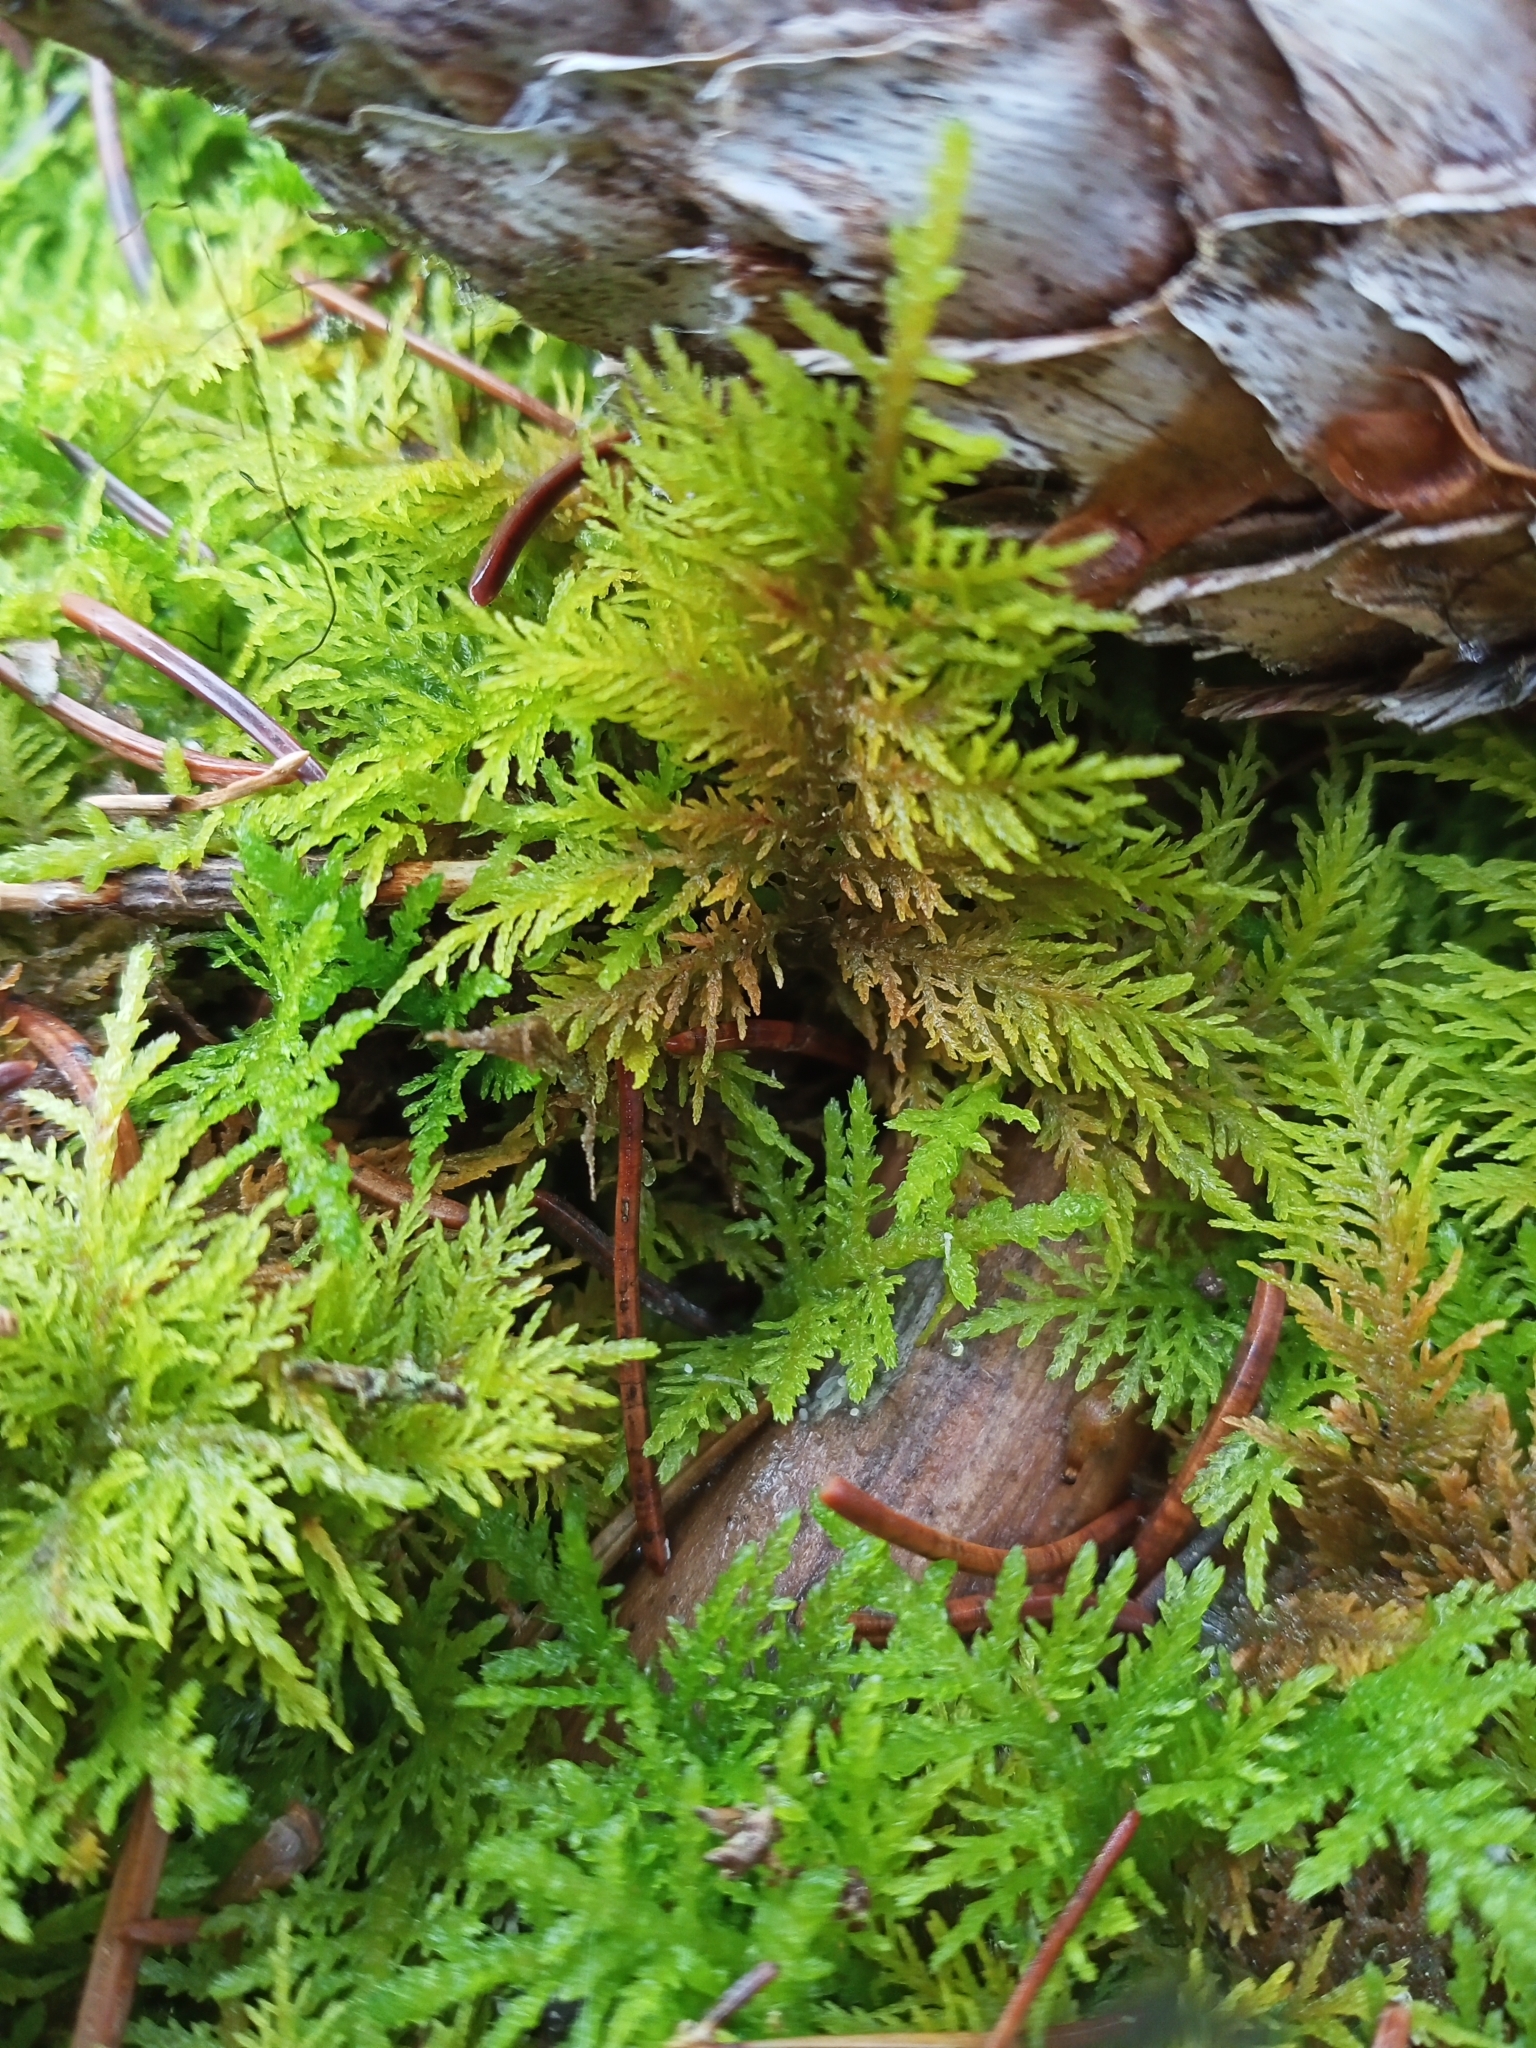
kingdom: Plantae
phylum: Bryophyta
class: Bryopsida
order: Hypnales
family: Thuidiaceae
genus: Thuidium
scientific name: Thuidium tamariscinum
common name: Common tamarisk-moss
